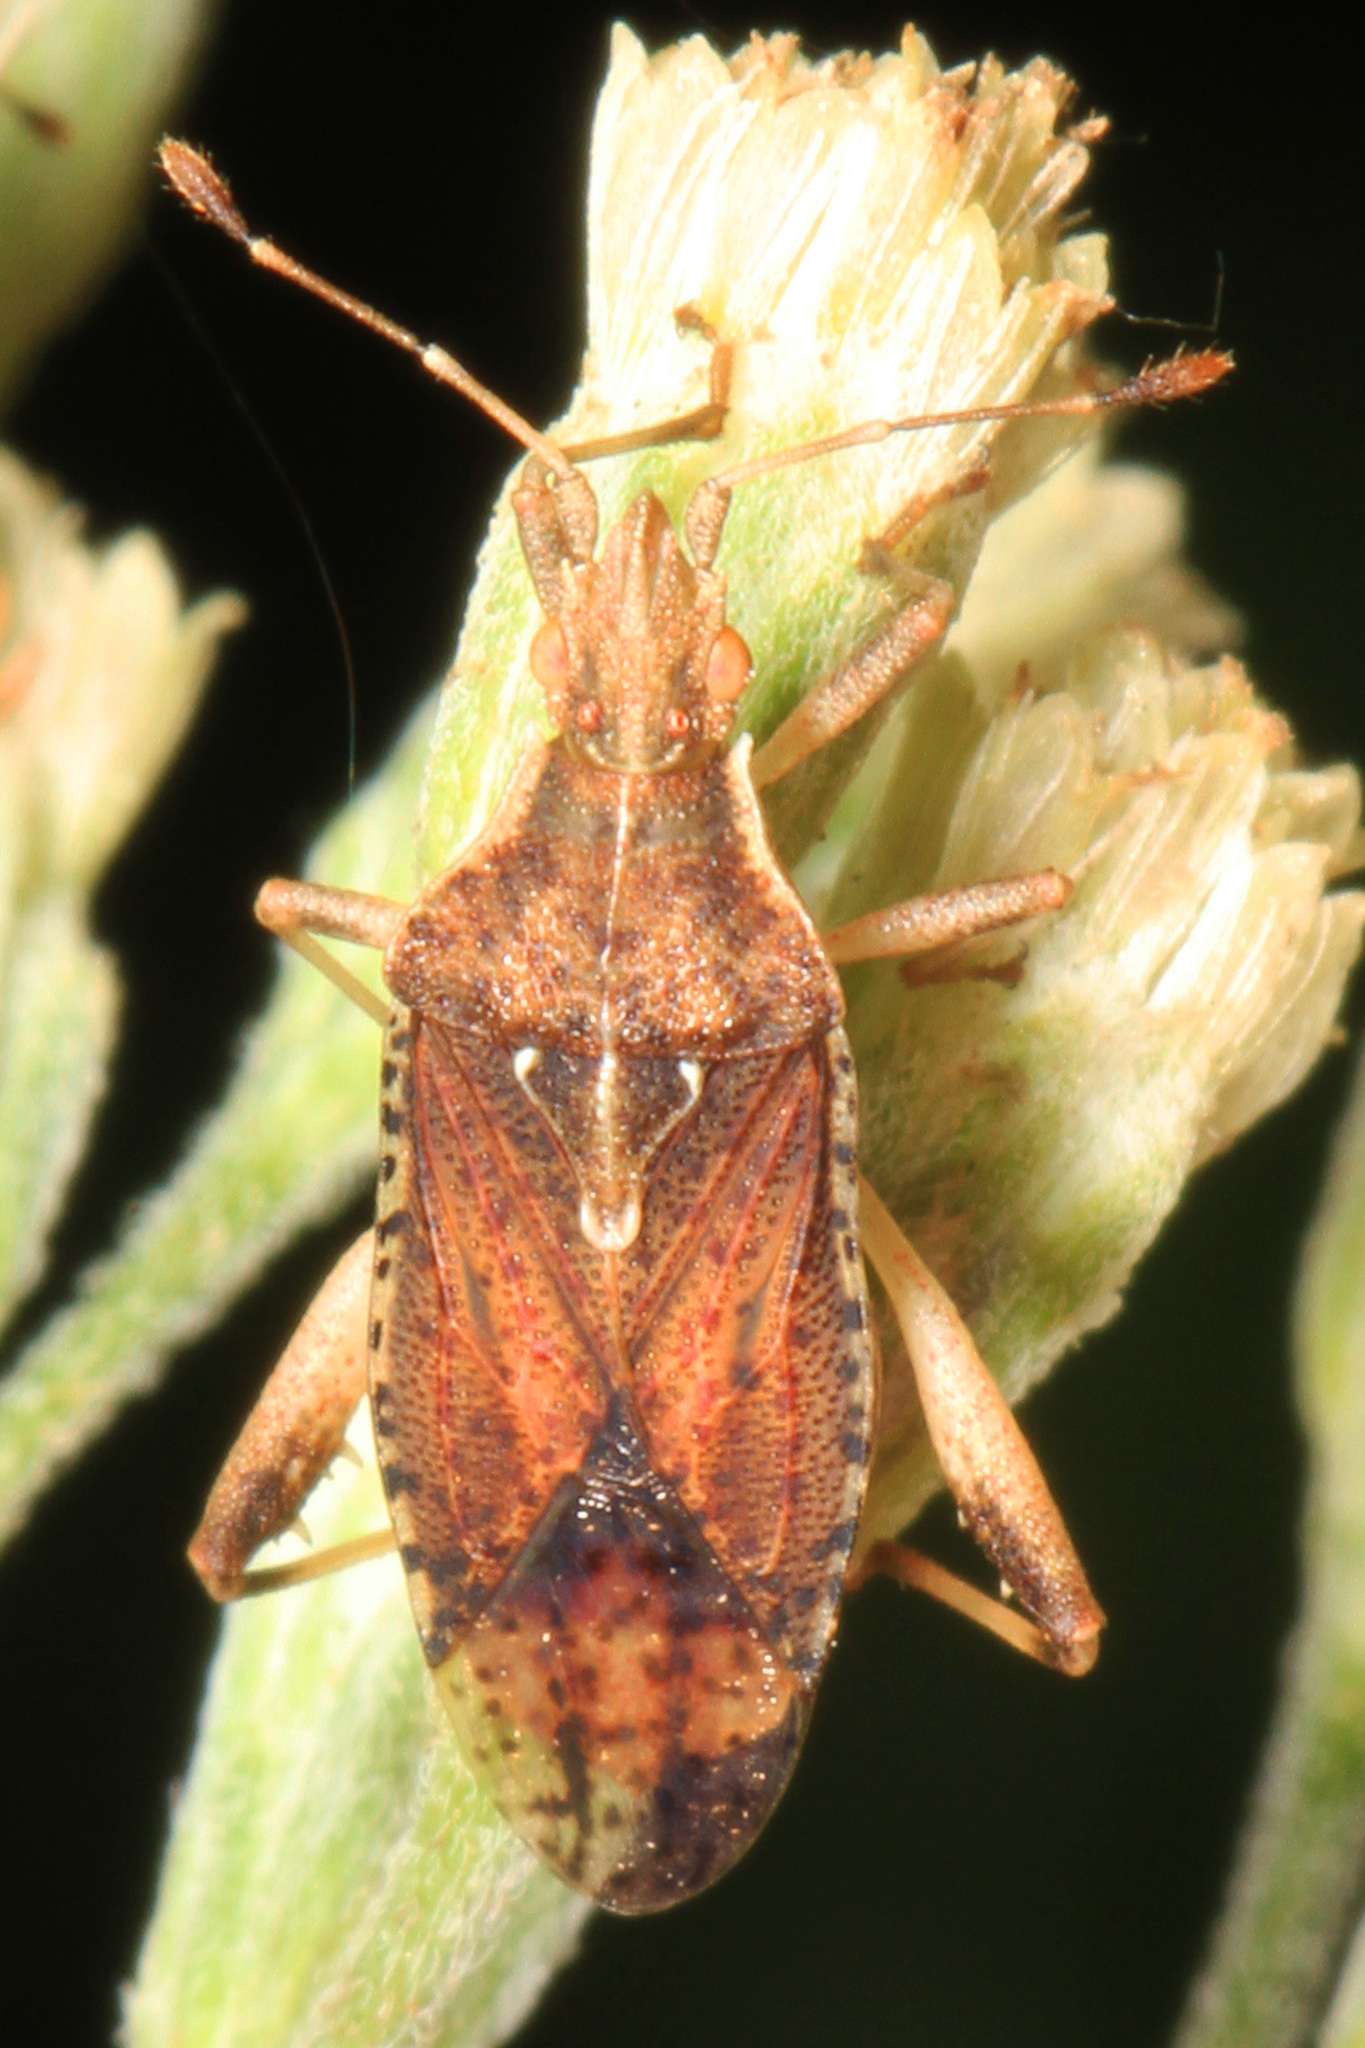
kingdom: Animalia
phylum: Arthropoda
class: Insecta
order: Hemiptera
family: Rhopalidae
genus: Harmostes
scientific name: Harmostes fraterculus
